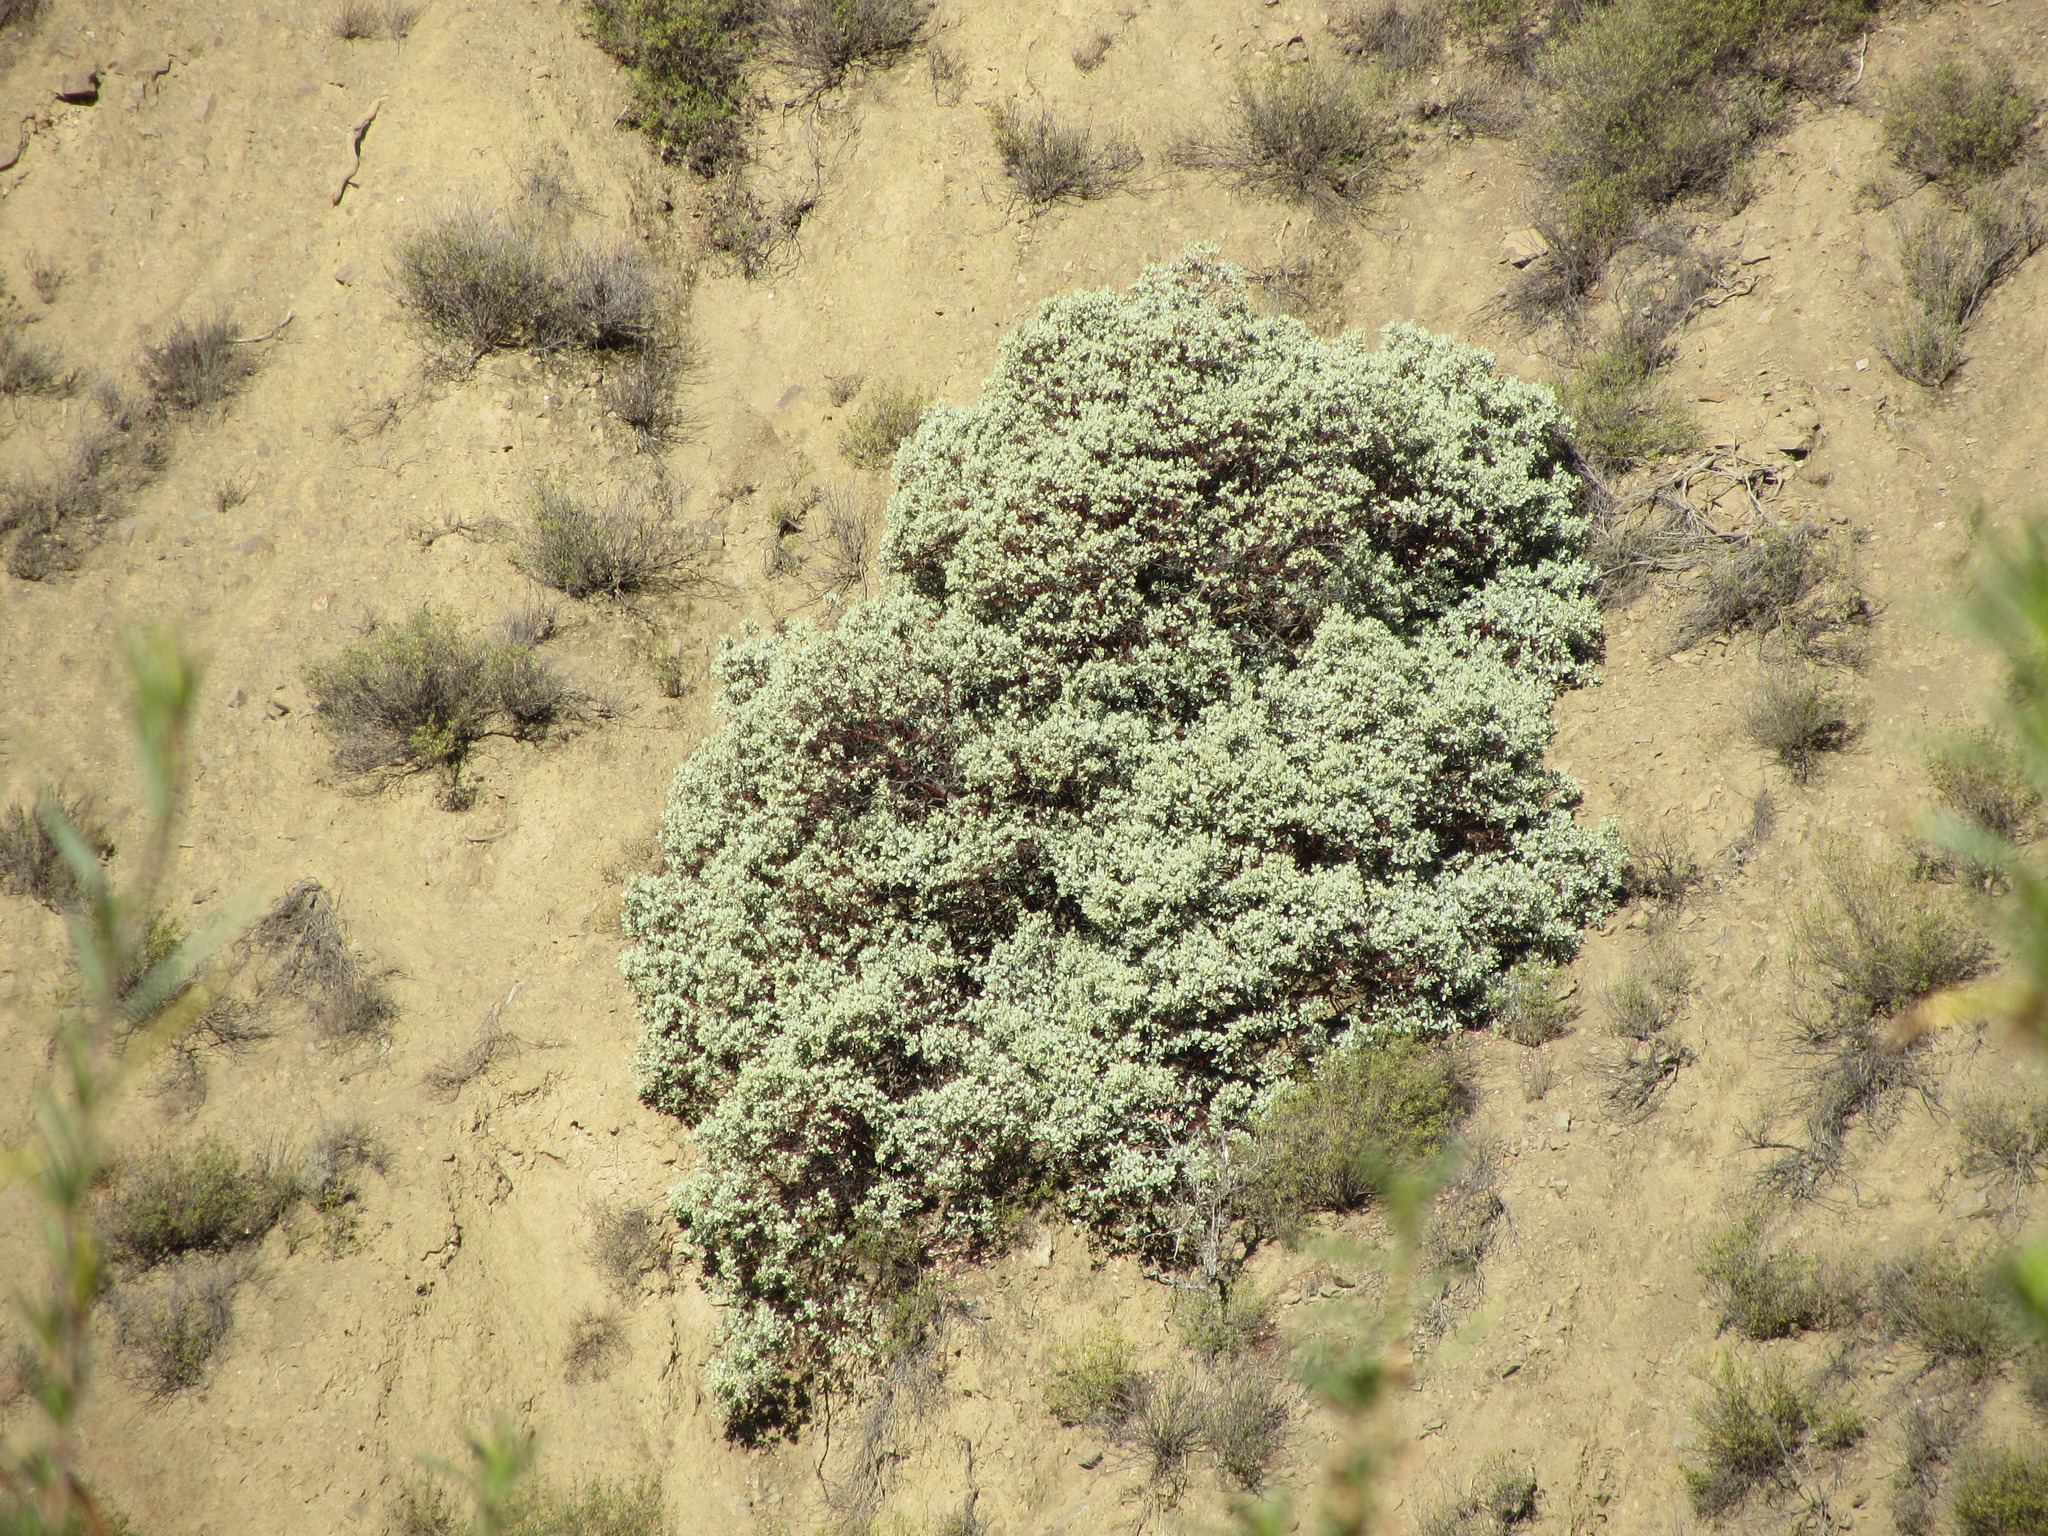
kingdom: Plantae
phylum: Tracheophyta
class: Magnoliopsida
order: Ericales
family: Ericaceae
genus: Arctostaphylos
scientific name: Arctostaphylos glauca
